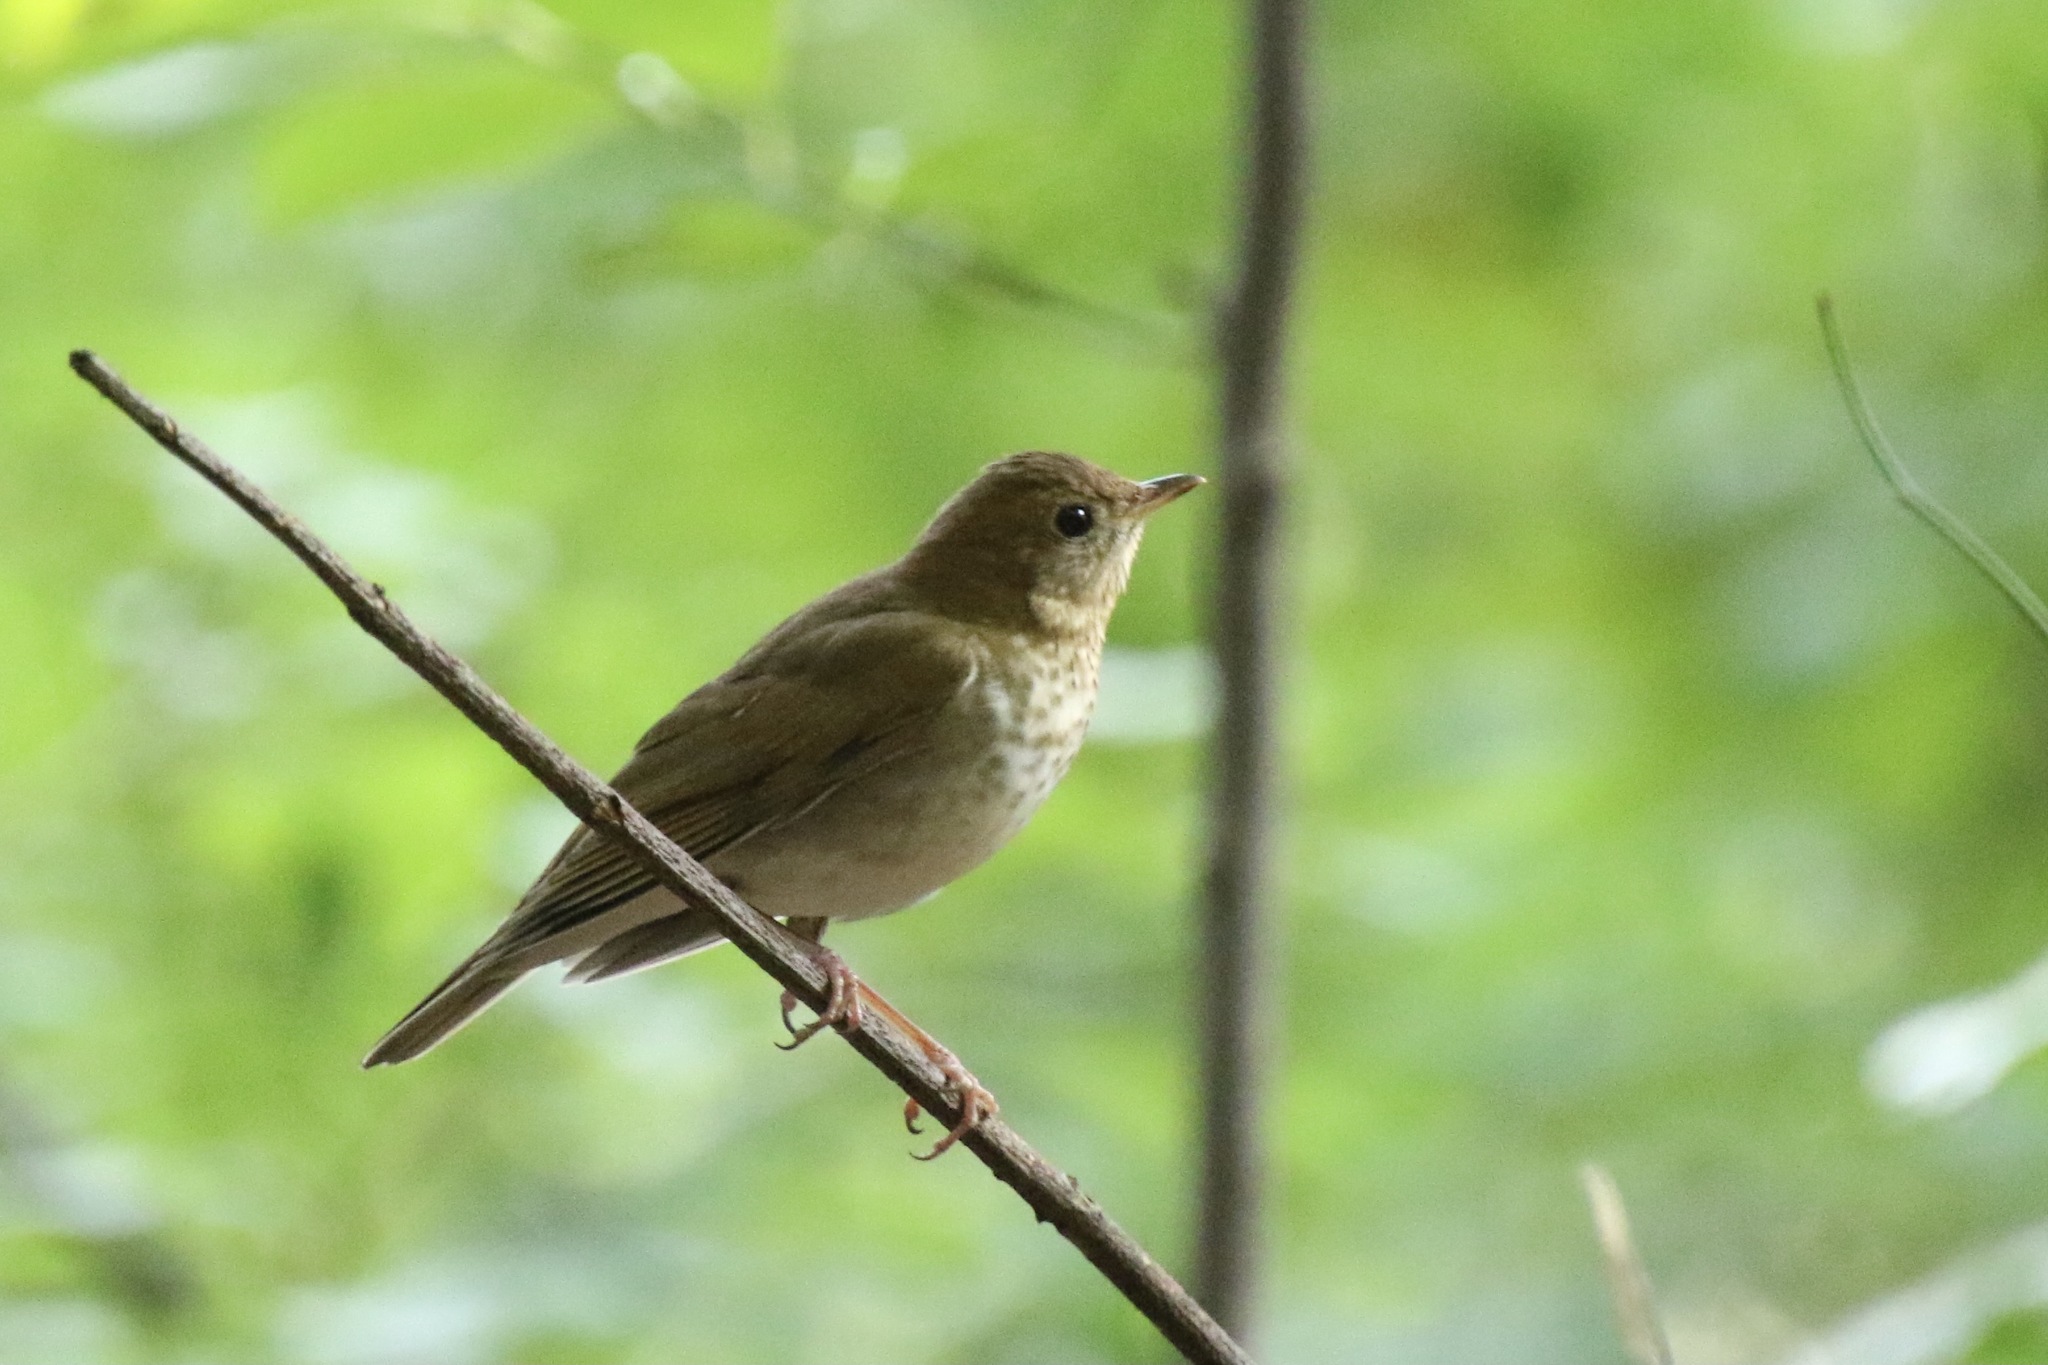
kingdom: Animalia
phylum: Chordata
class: Aves
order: Passeriformes
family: Turdidae
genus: Catharus
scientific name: Catharus fuscescens
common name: Veery
